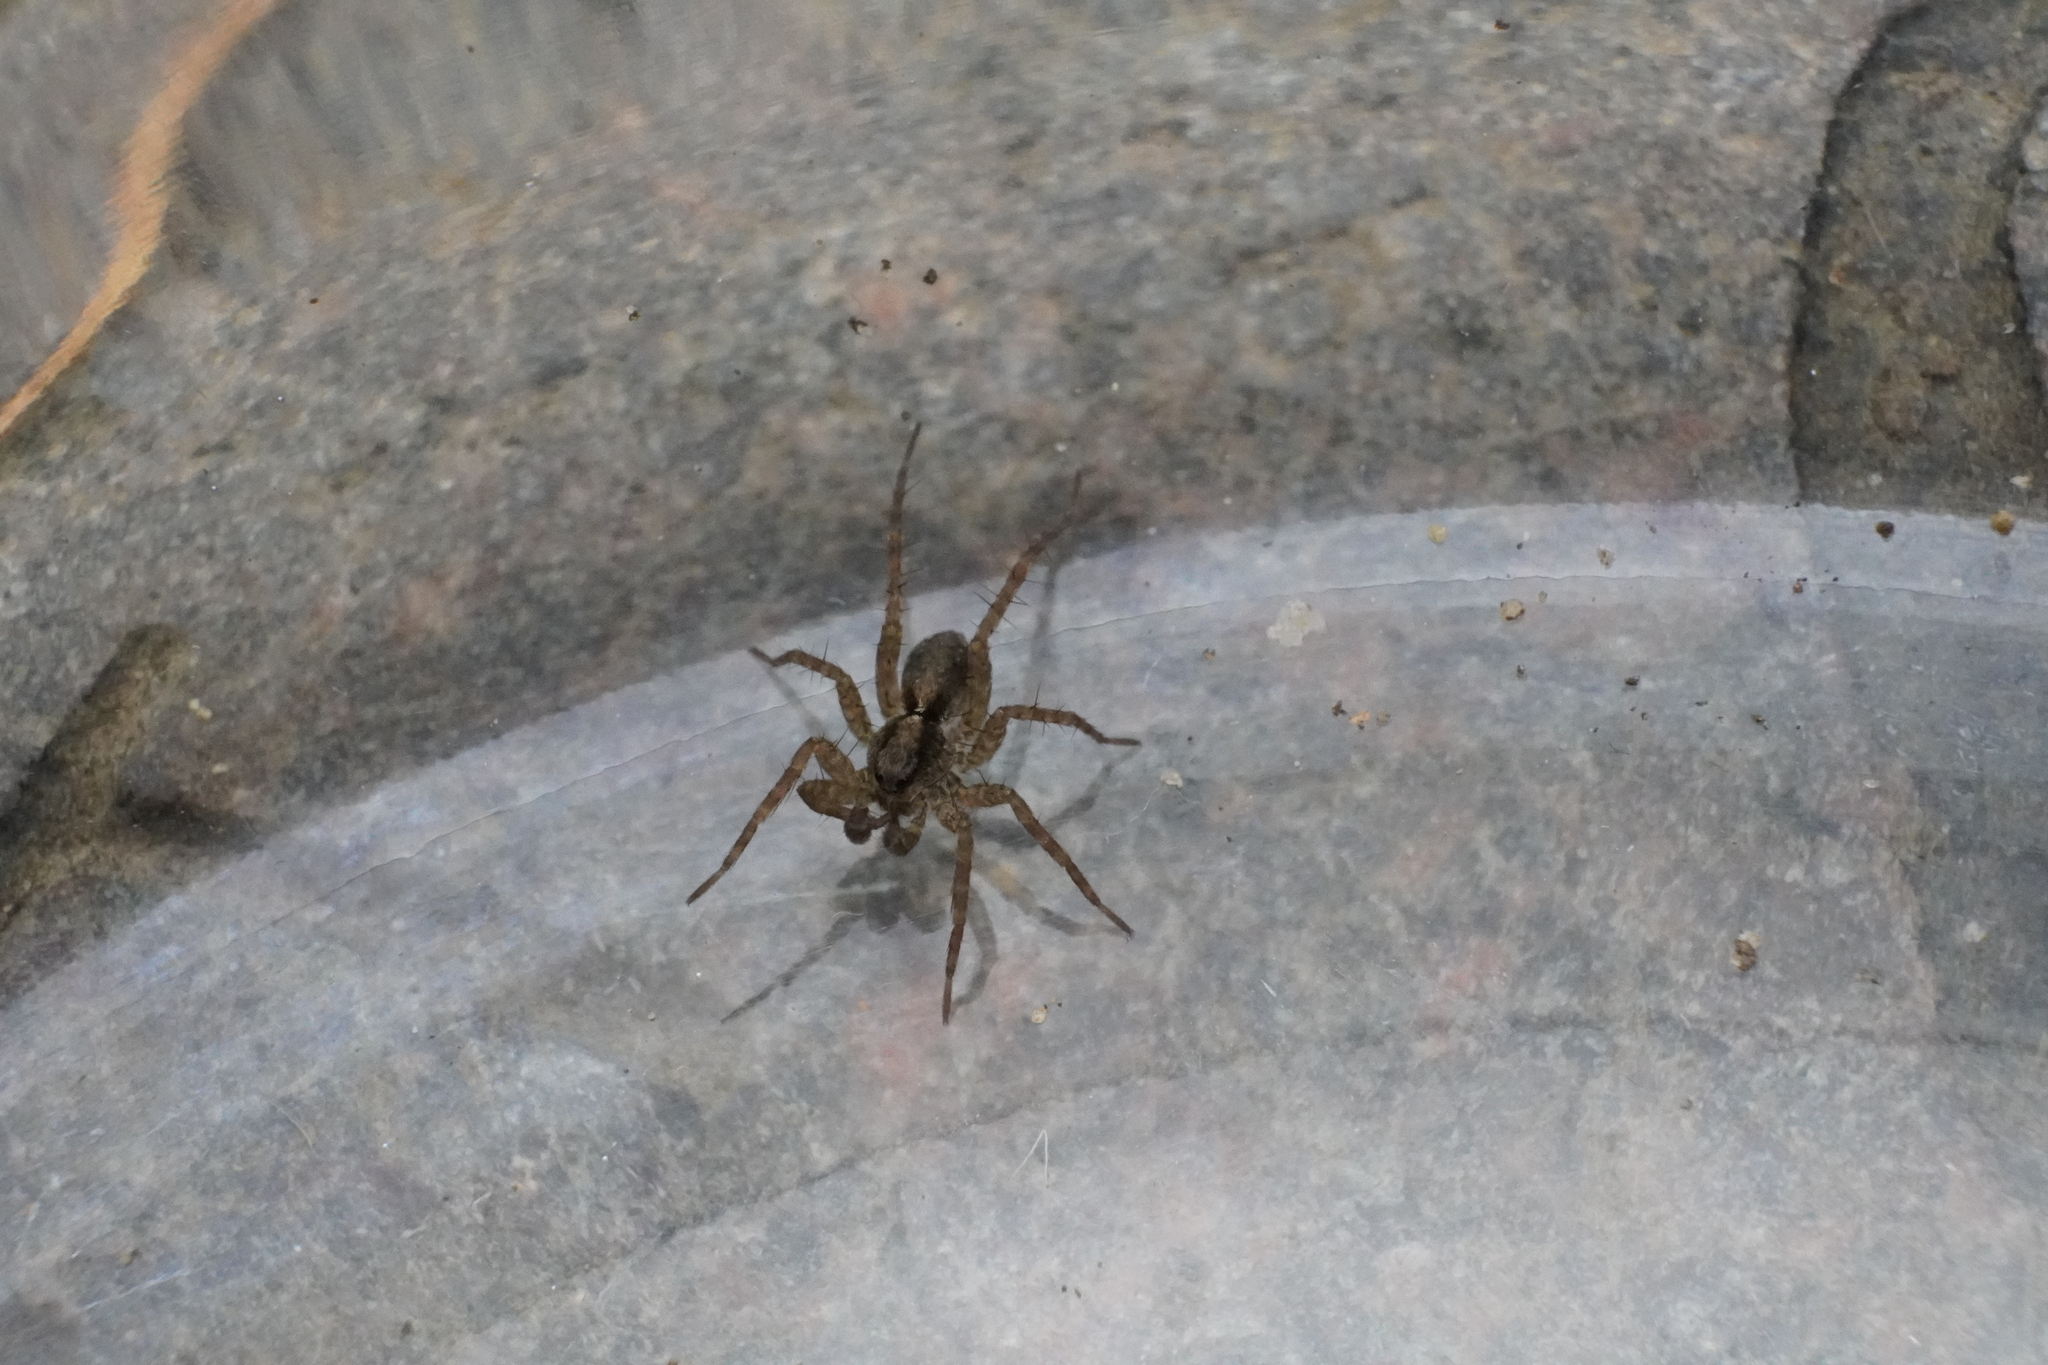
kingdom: Animalia
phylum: Arthropoda
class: Arachnida
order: Araneae
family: Lycosidae
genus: Pardosa
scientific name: Pardosa milvina
